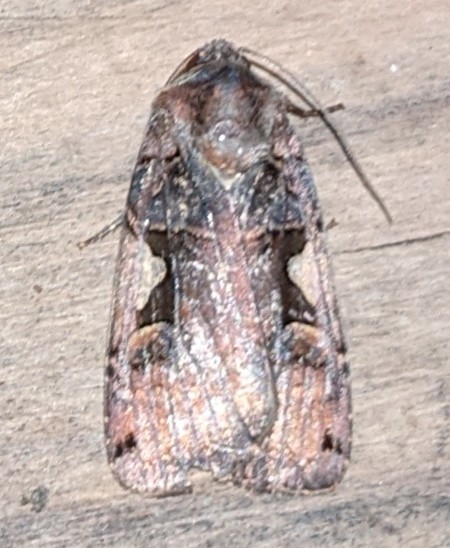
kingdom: Animalia
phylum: Arthropoda
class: Insecta
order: Lepidoptera
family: Noctuidae
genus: Xestia
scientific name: Xestia
